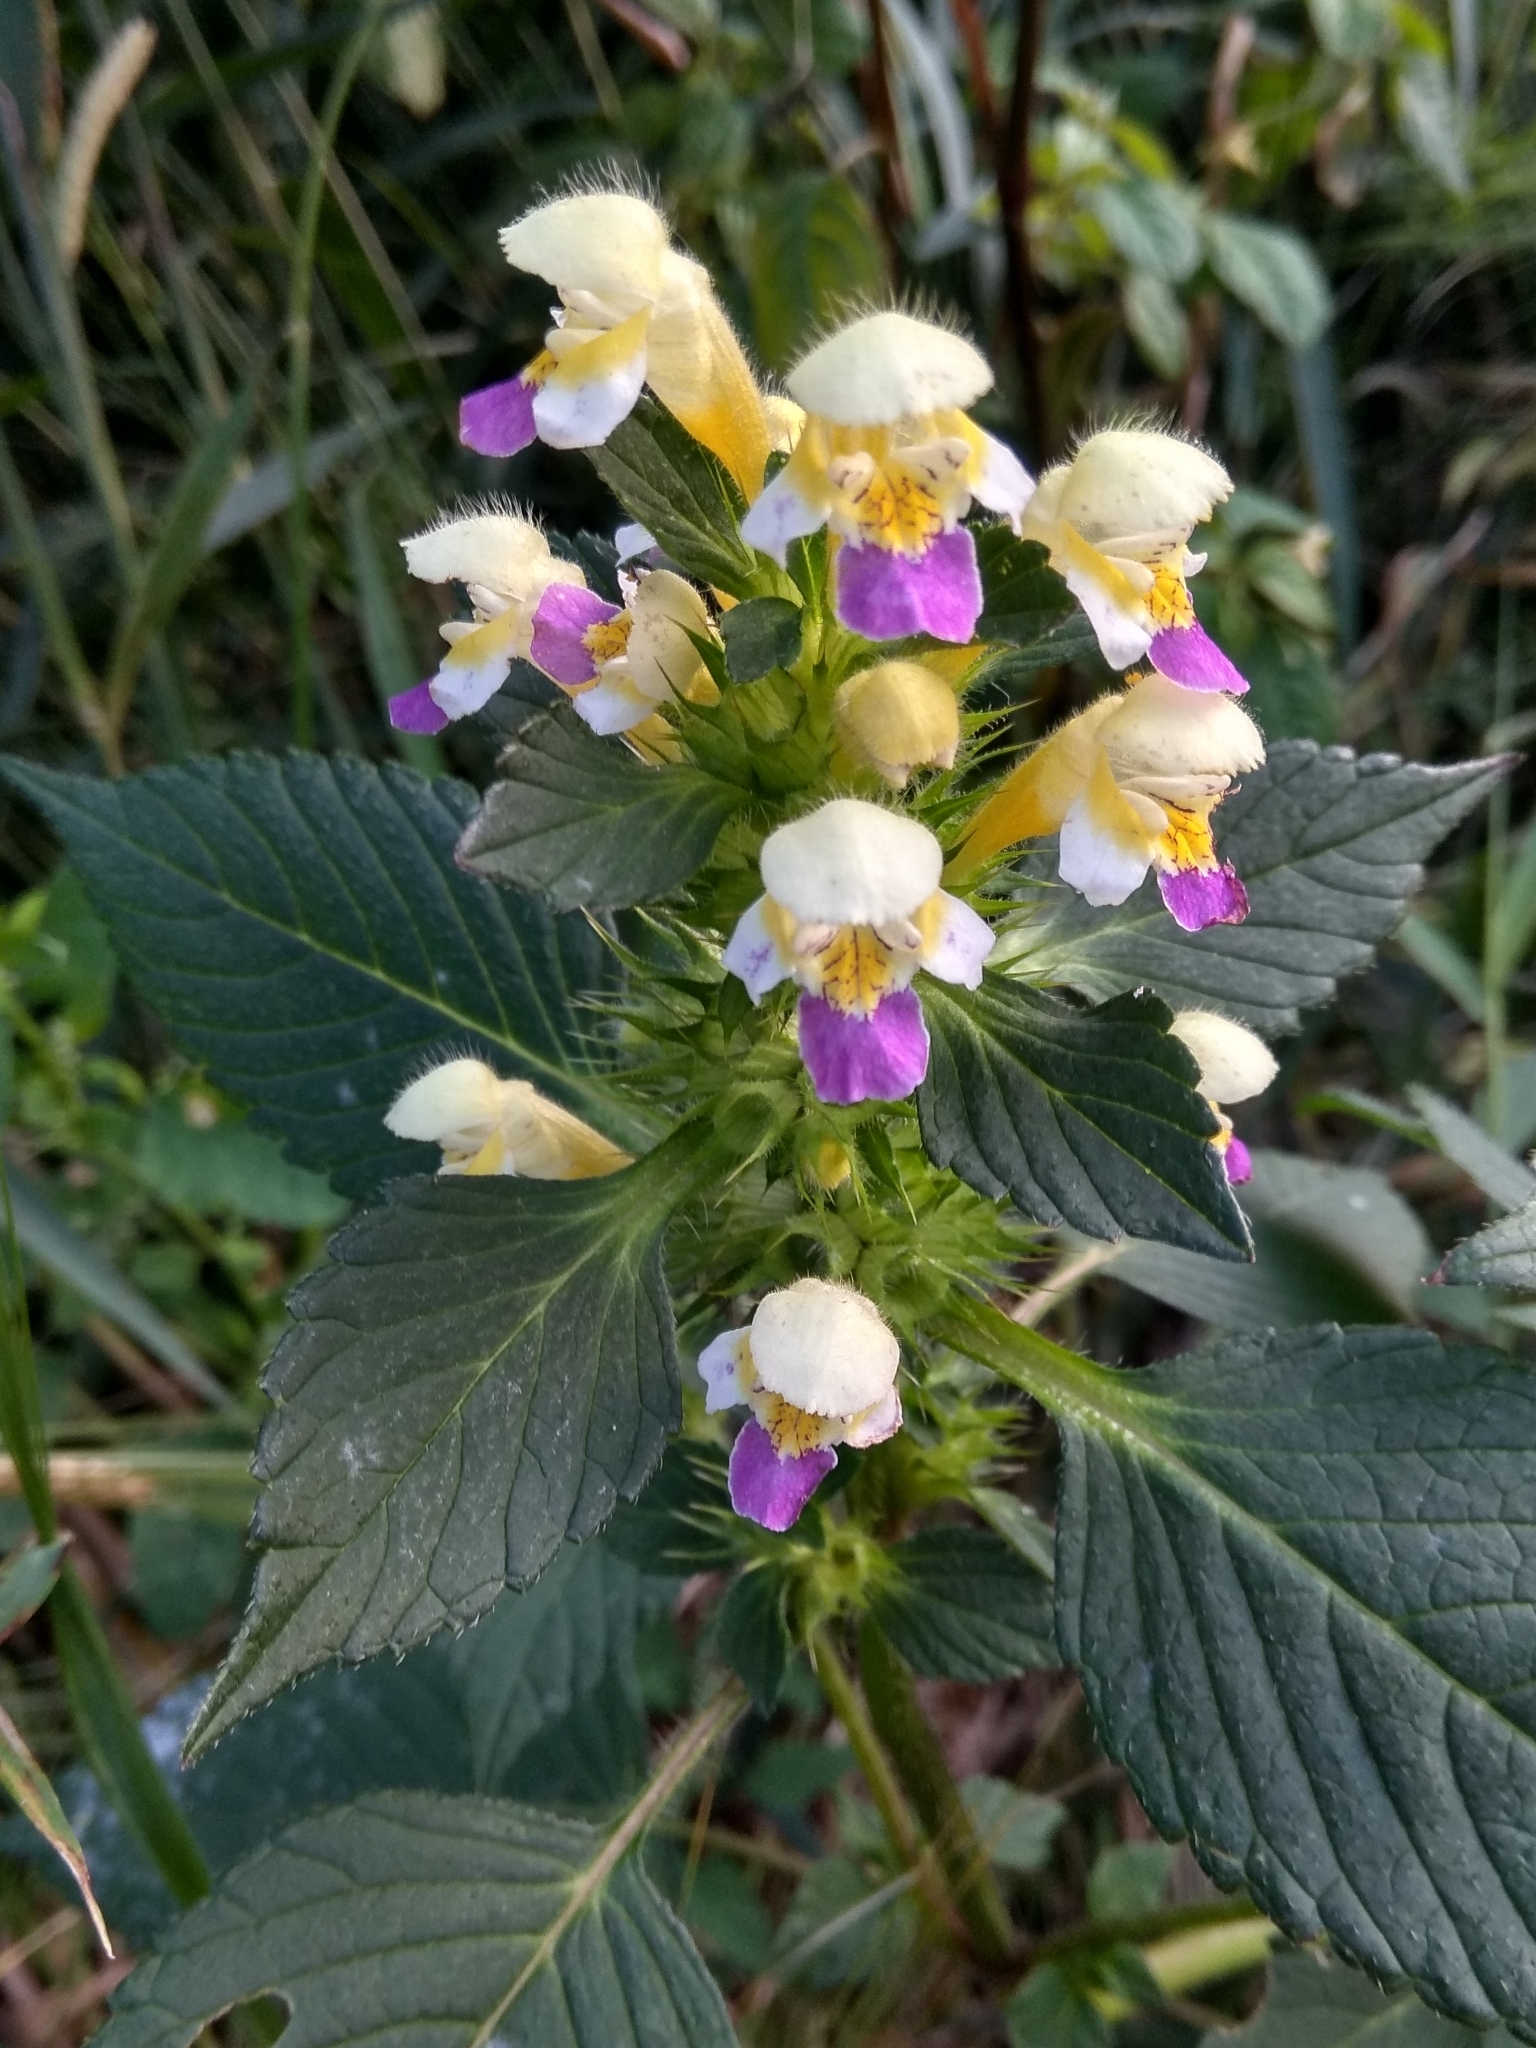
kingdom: Plantae
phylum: Tracheophyta
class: Magnoliopsida
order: Lamiales
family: Lamiaceae
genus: Galeopsis
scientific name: Galeopsis speciosa
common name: Large-flowered hemp-nettle
